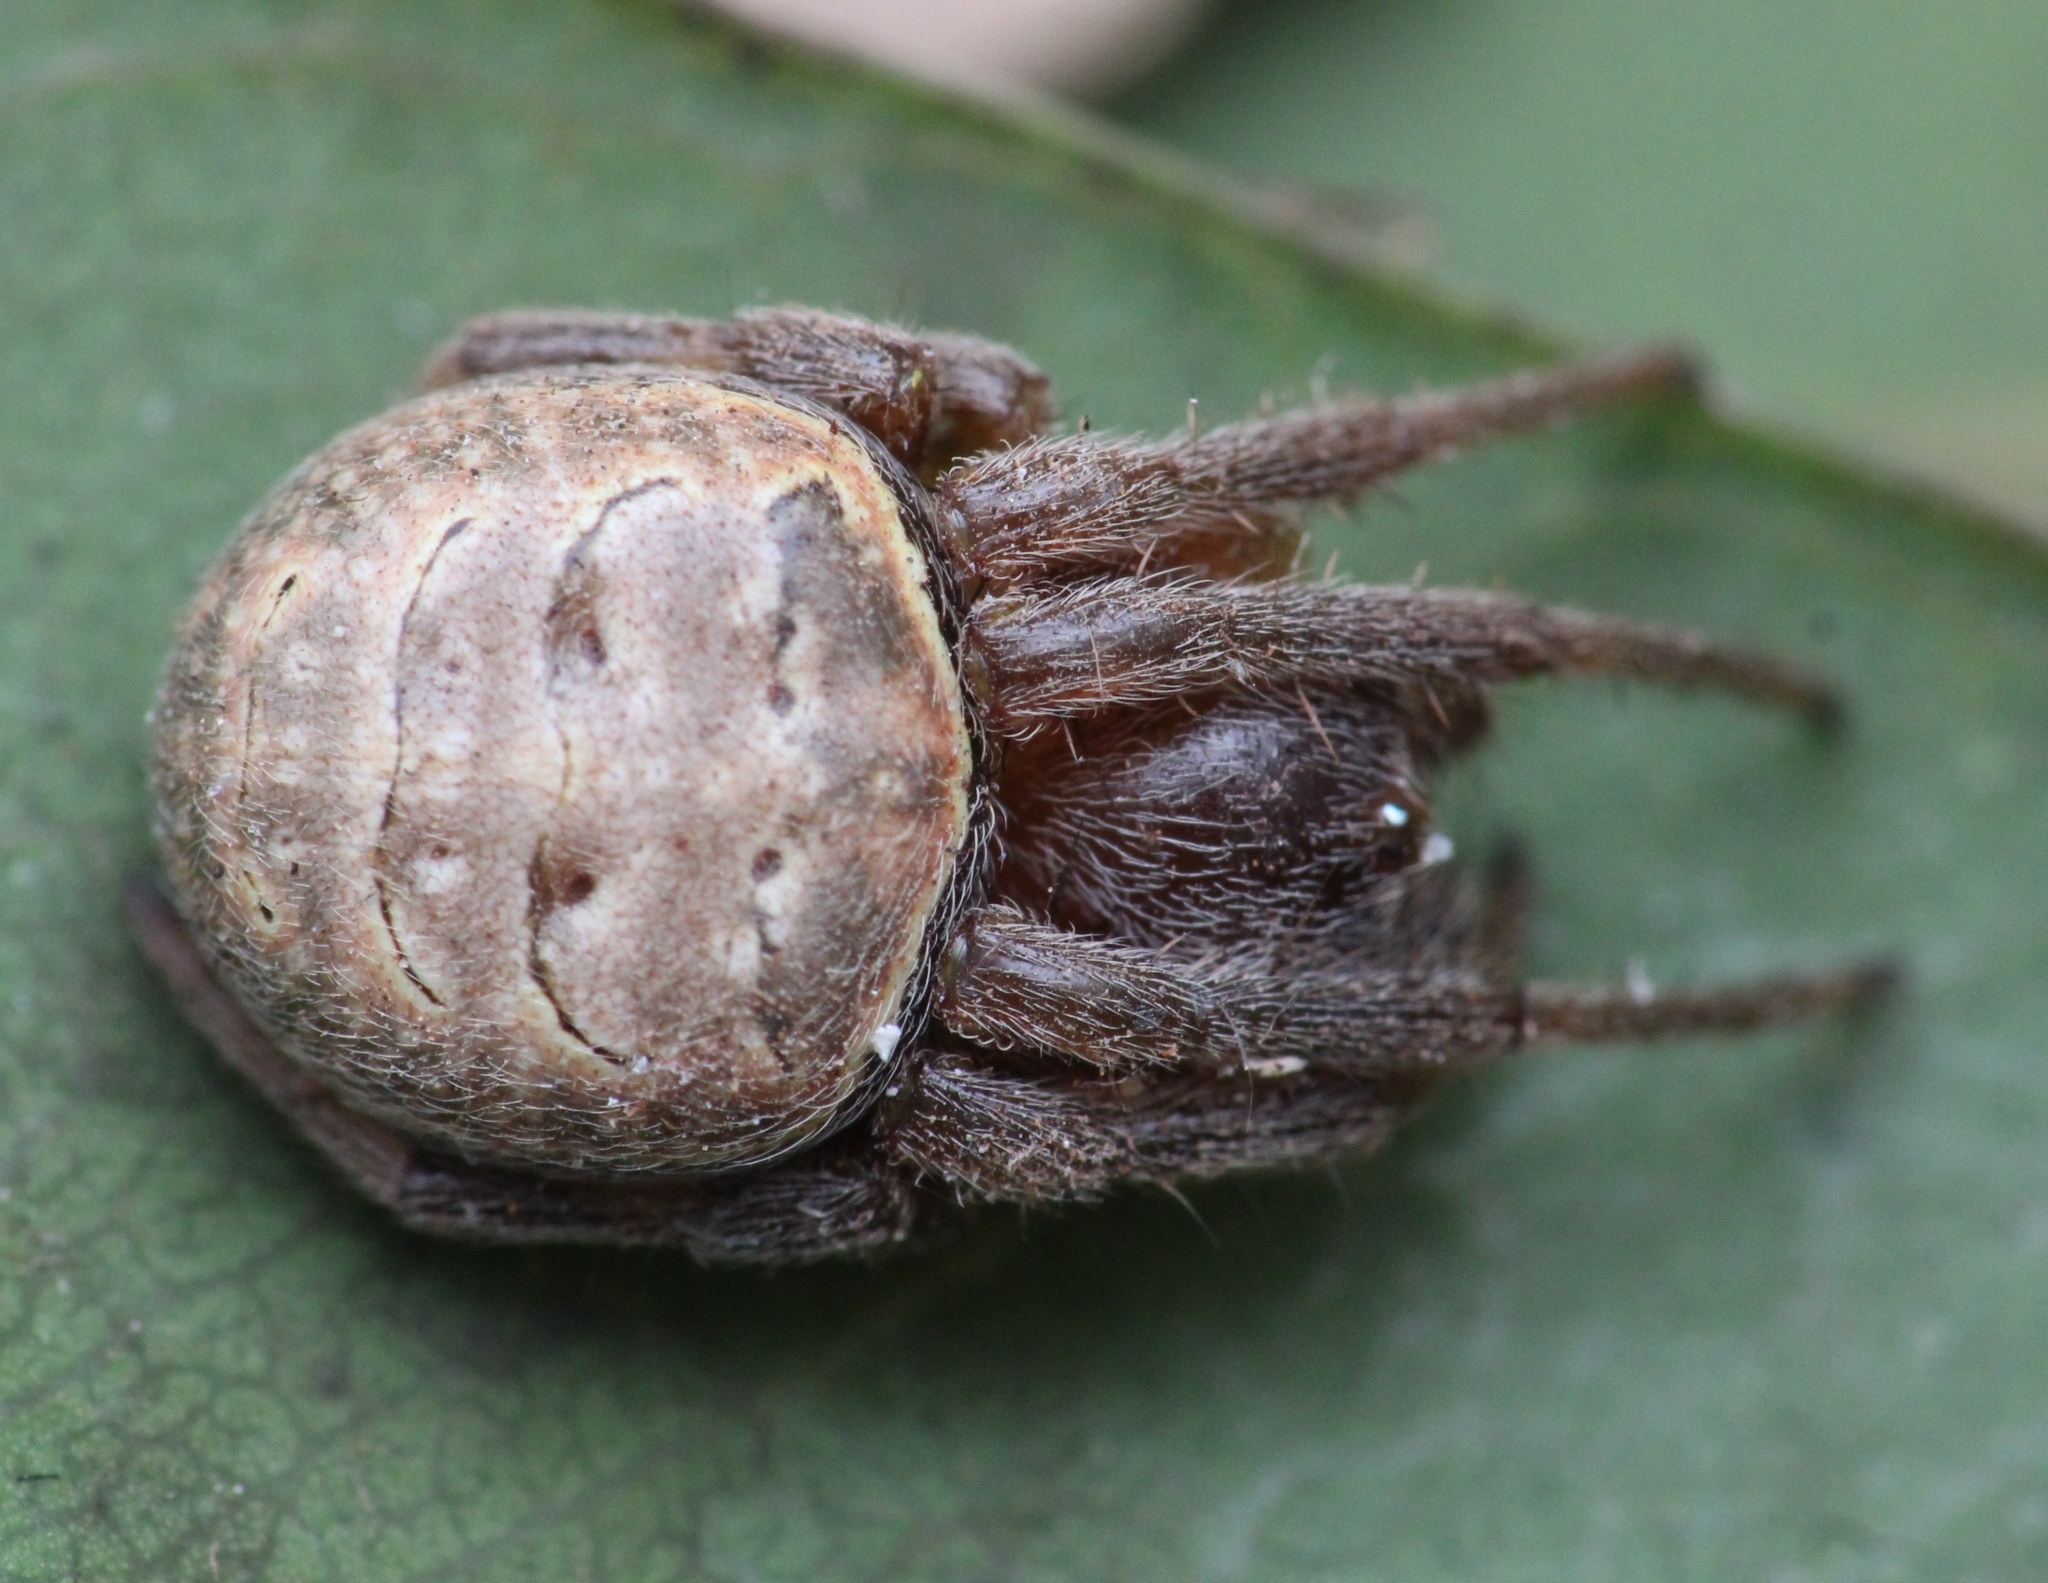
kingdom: Animalia
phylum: Arthropoda
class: Arachnida
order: Araneae
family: Araneidae
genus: Araneus
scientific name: Araneus apricus
